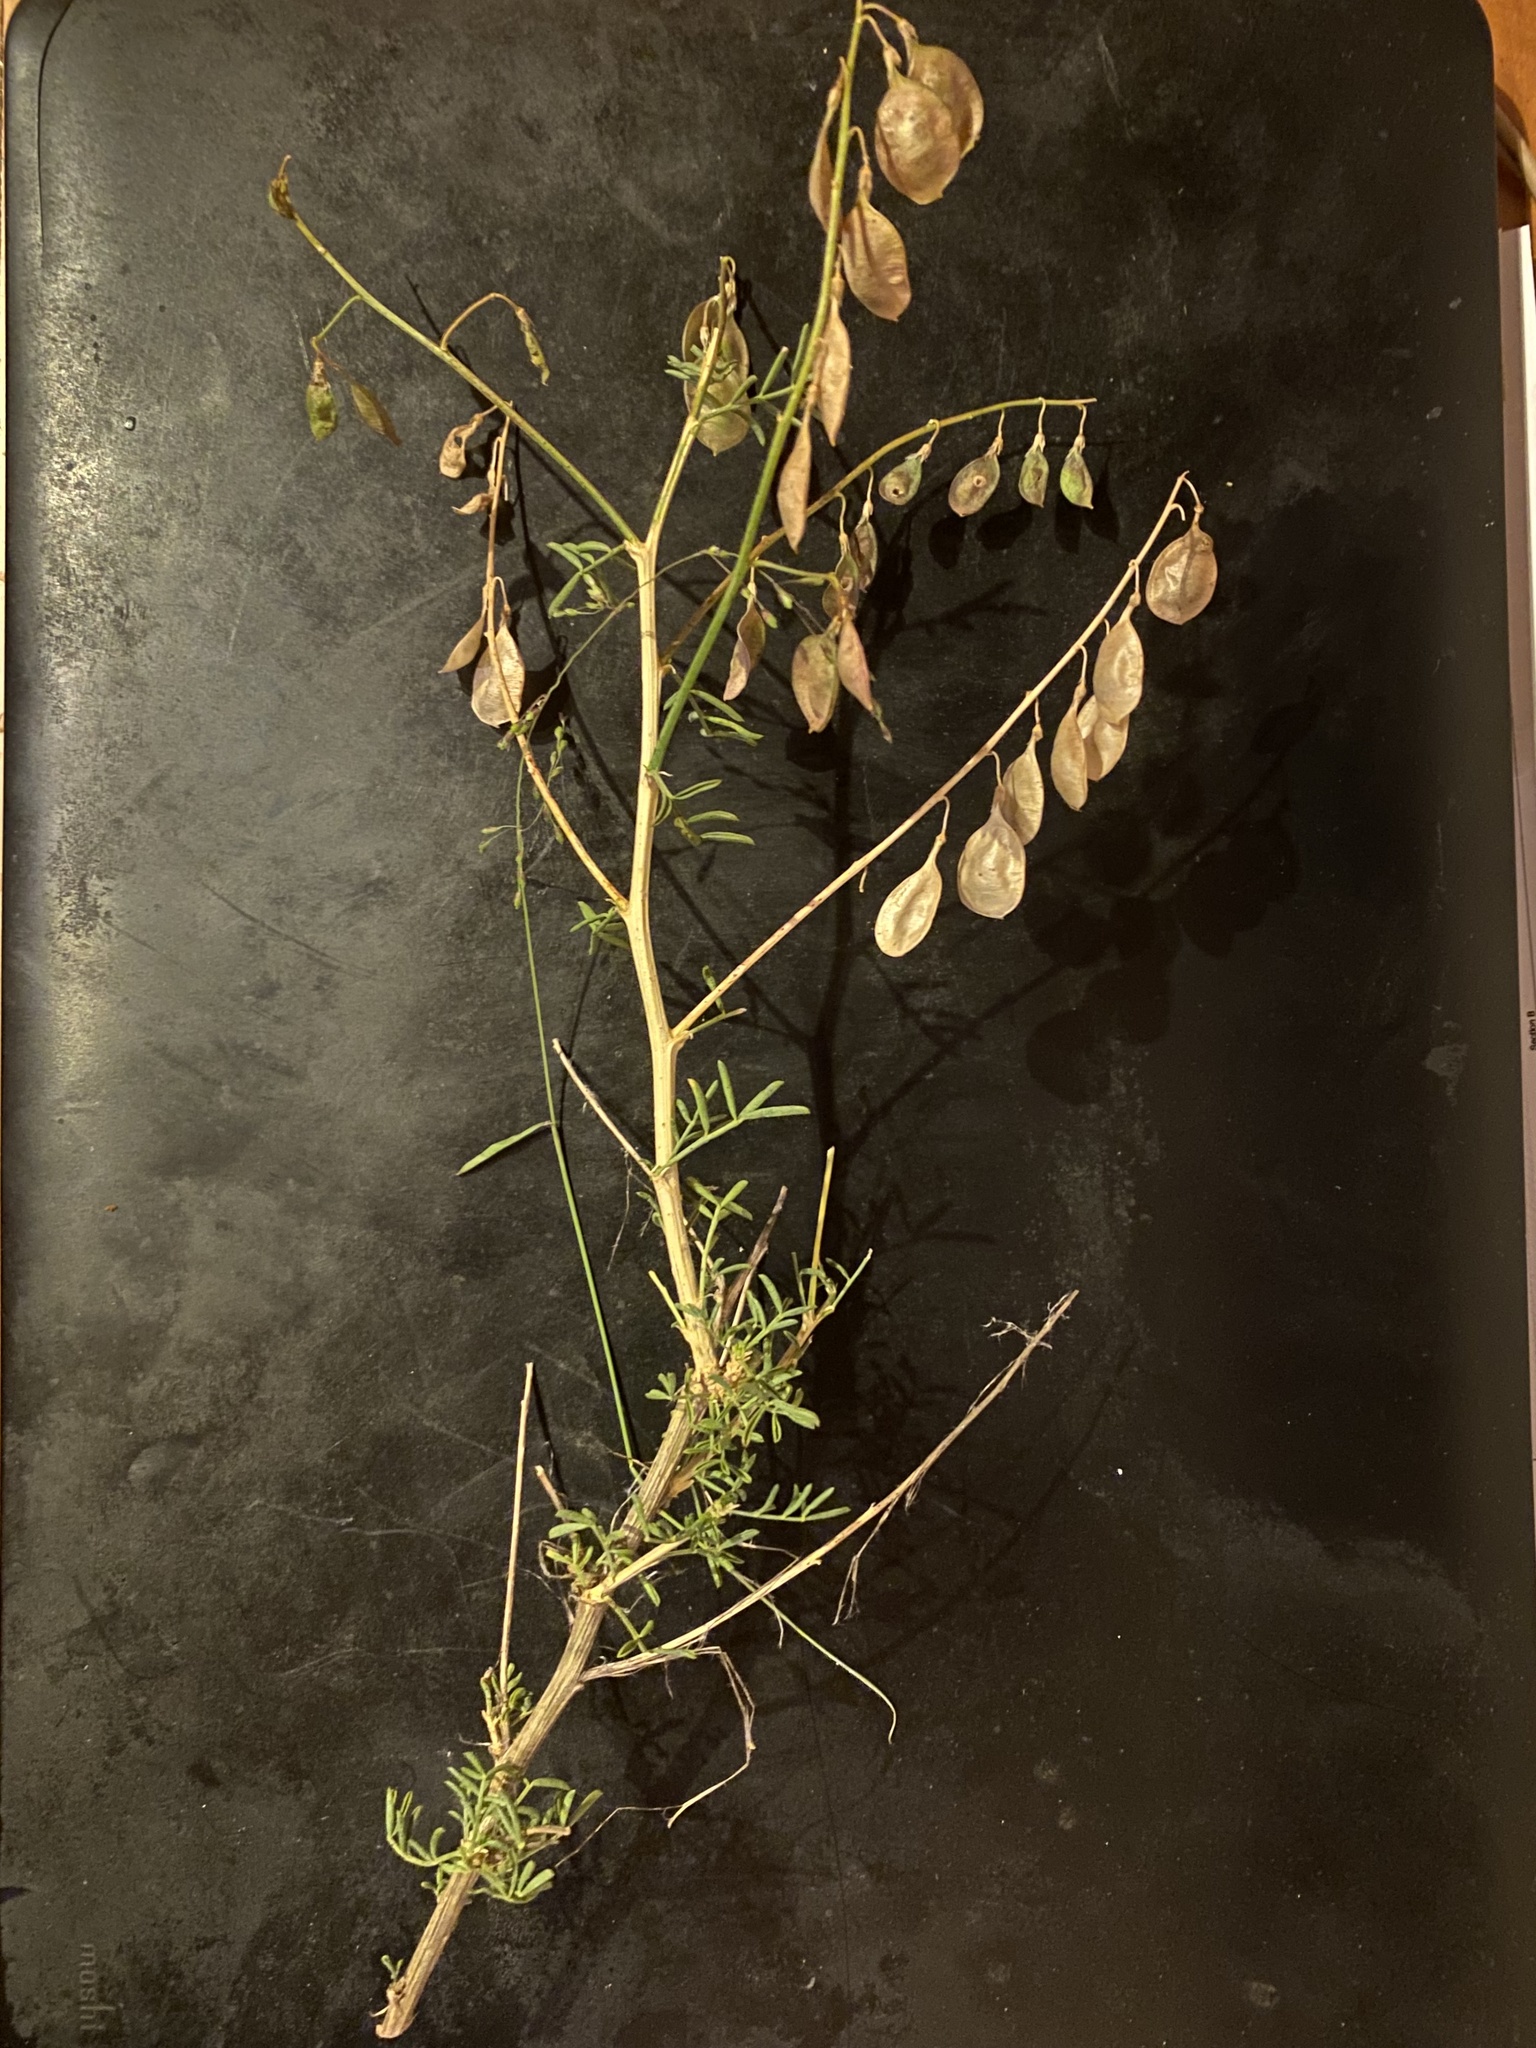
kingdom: Plantae
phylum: Tracheophyta
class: Magnoliopsida
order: Fabales
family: Fabaceae
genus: Lessertia
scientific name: Lessertia brachystachya
